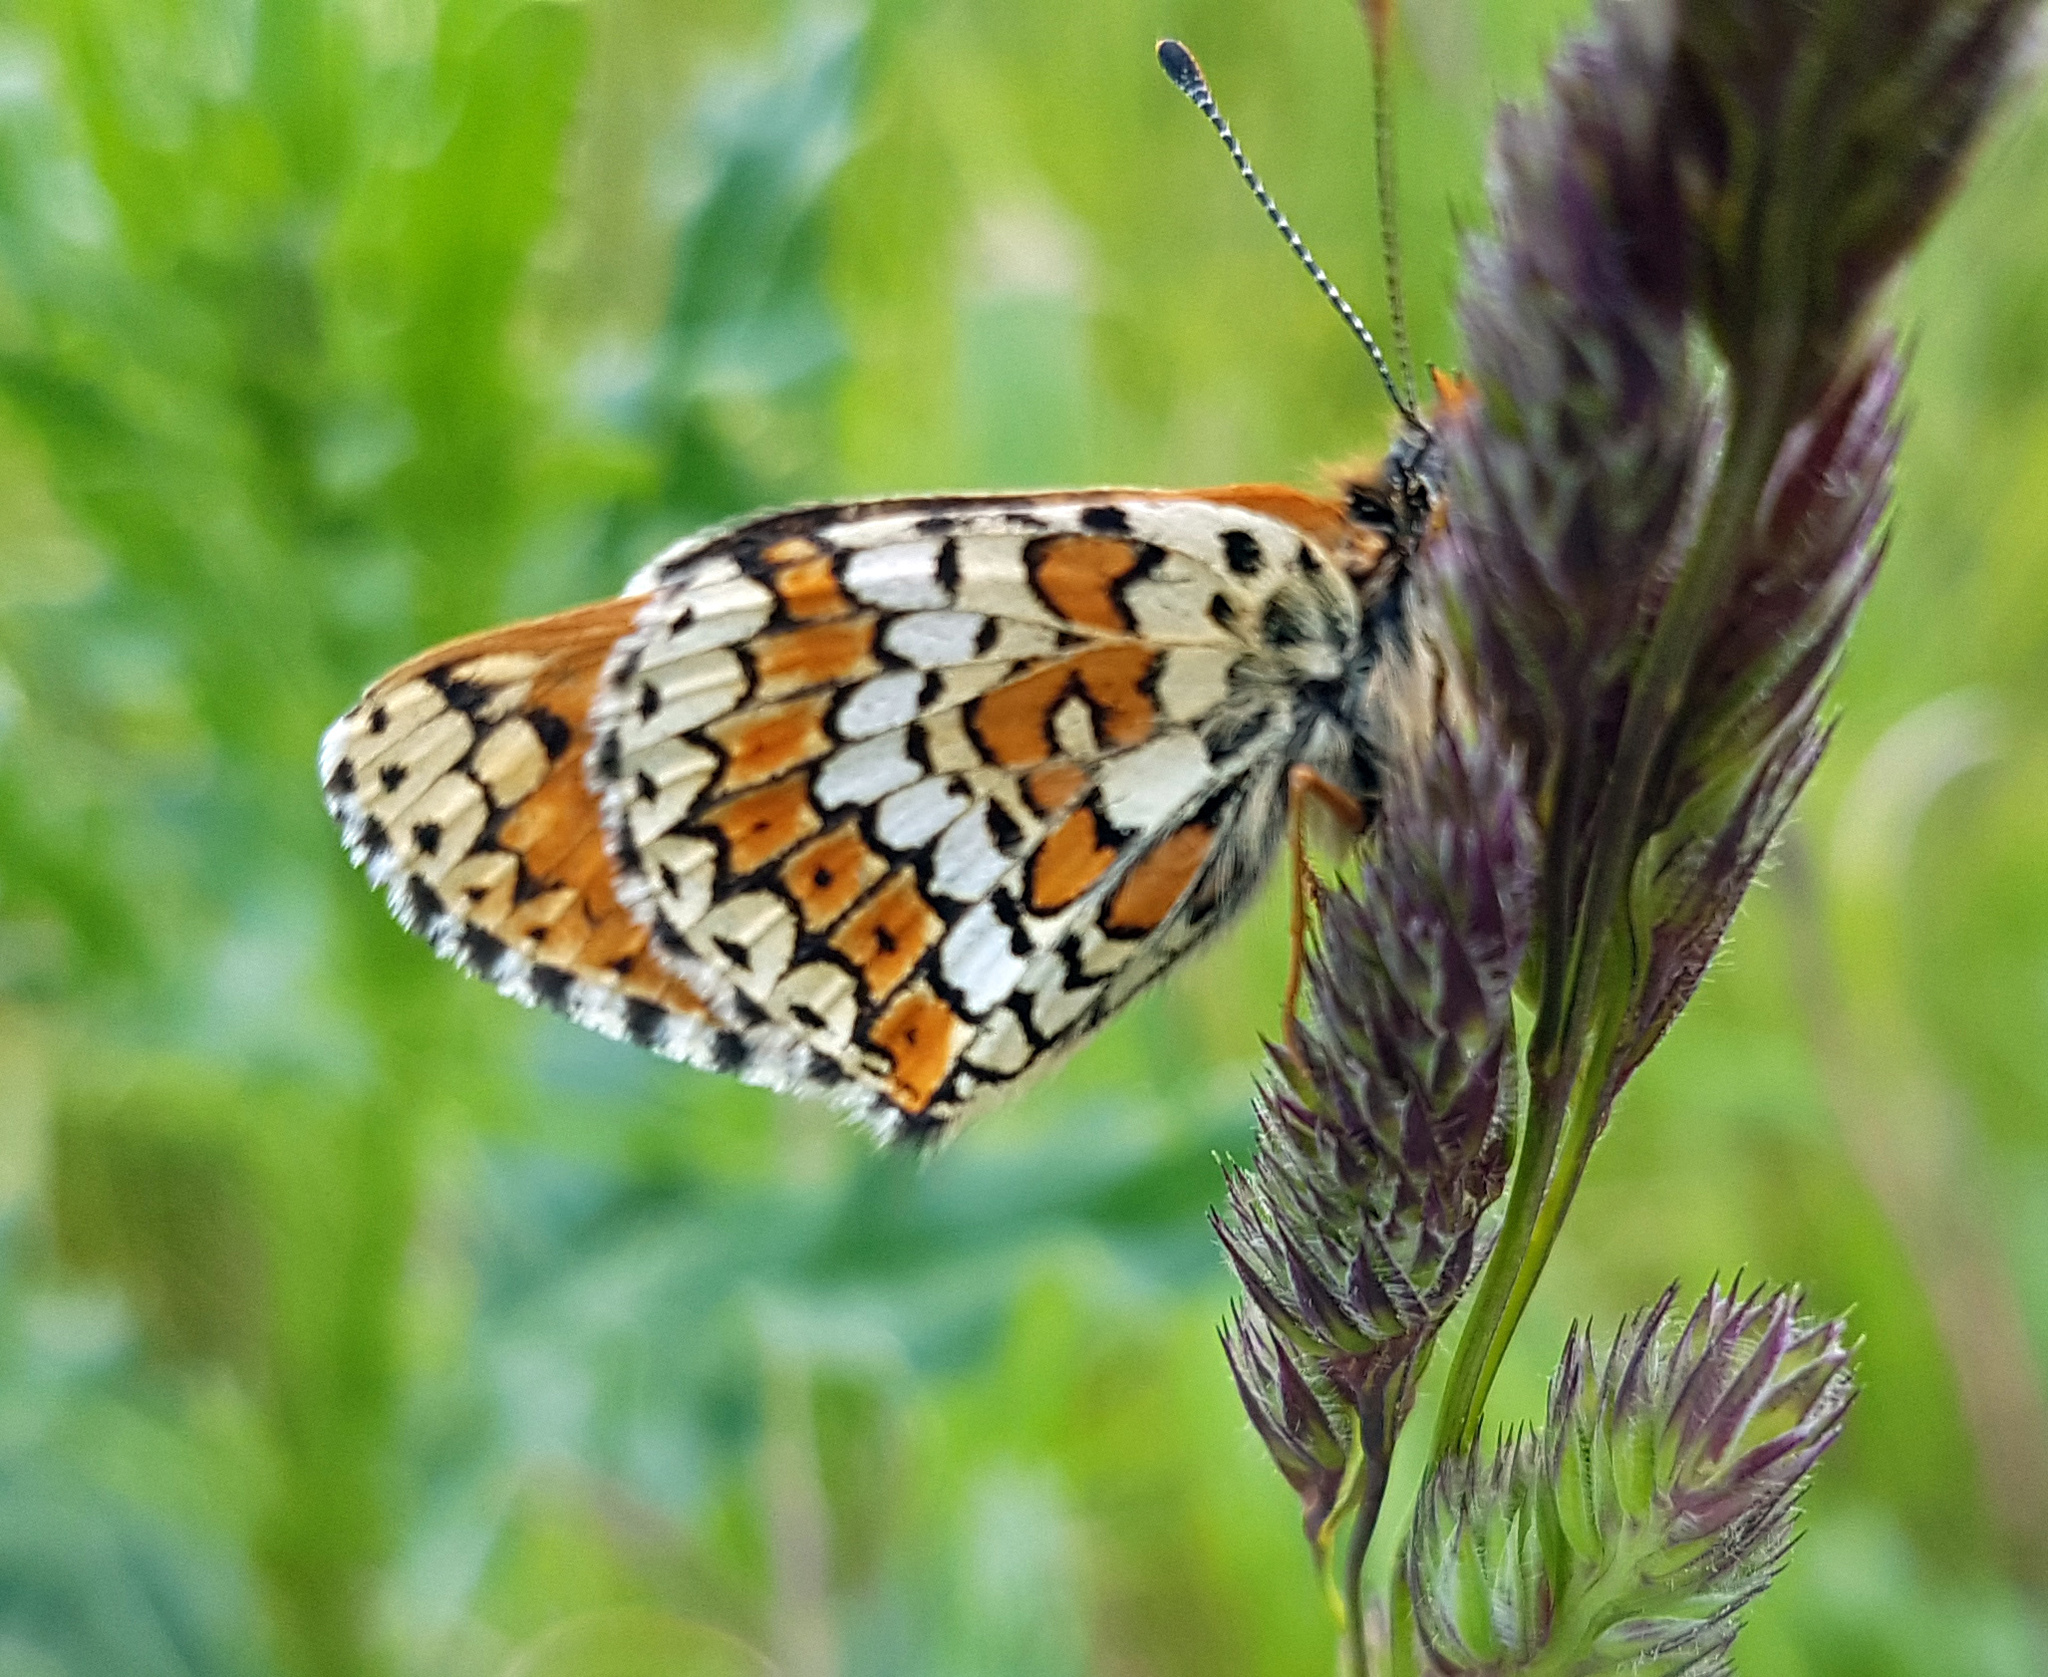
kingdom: Animalia
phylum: Arthropoda
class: Insecta
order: Lepidoptera
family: Nymphalidae
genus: Melitaea
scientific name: Melitaea cinxia
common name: Glanville fritillary
